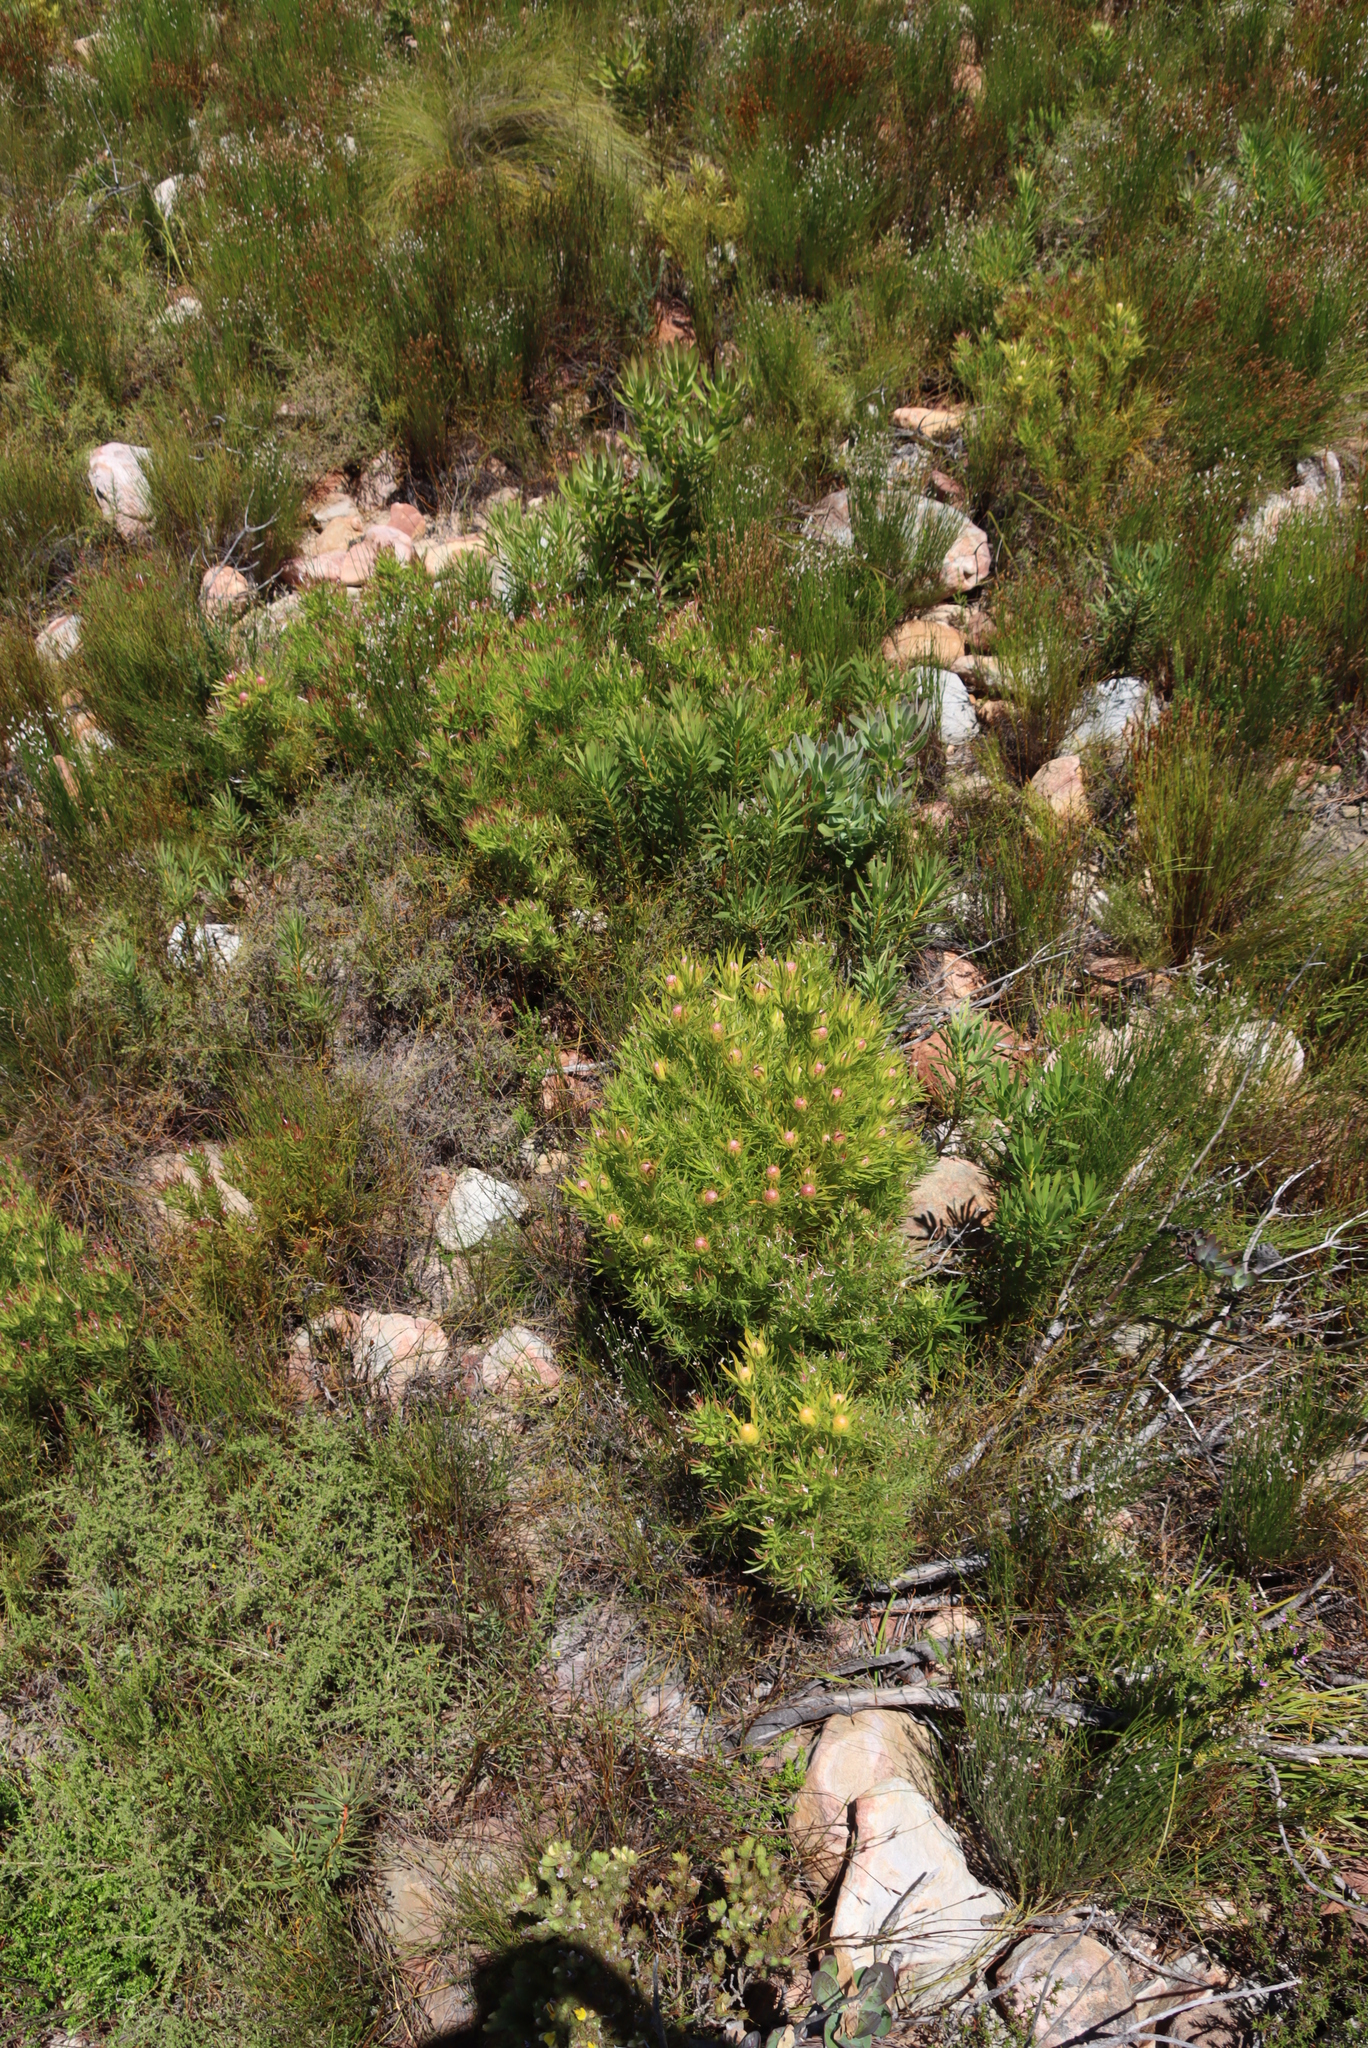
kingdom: Plantae
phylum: Tracheophyta
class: Magnoliopsida
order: Proteales
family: Proteaceae
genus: Leucadendron
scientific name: Leucadendron xanthoconus
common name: Sickle-leaf conebush
